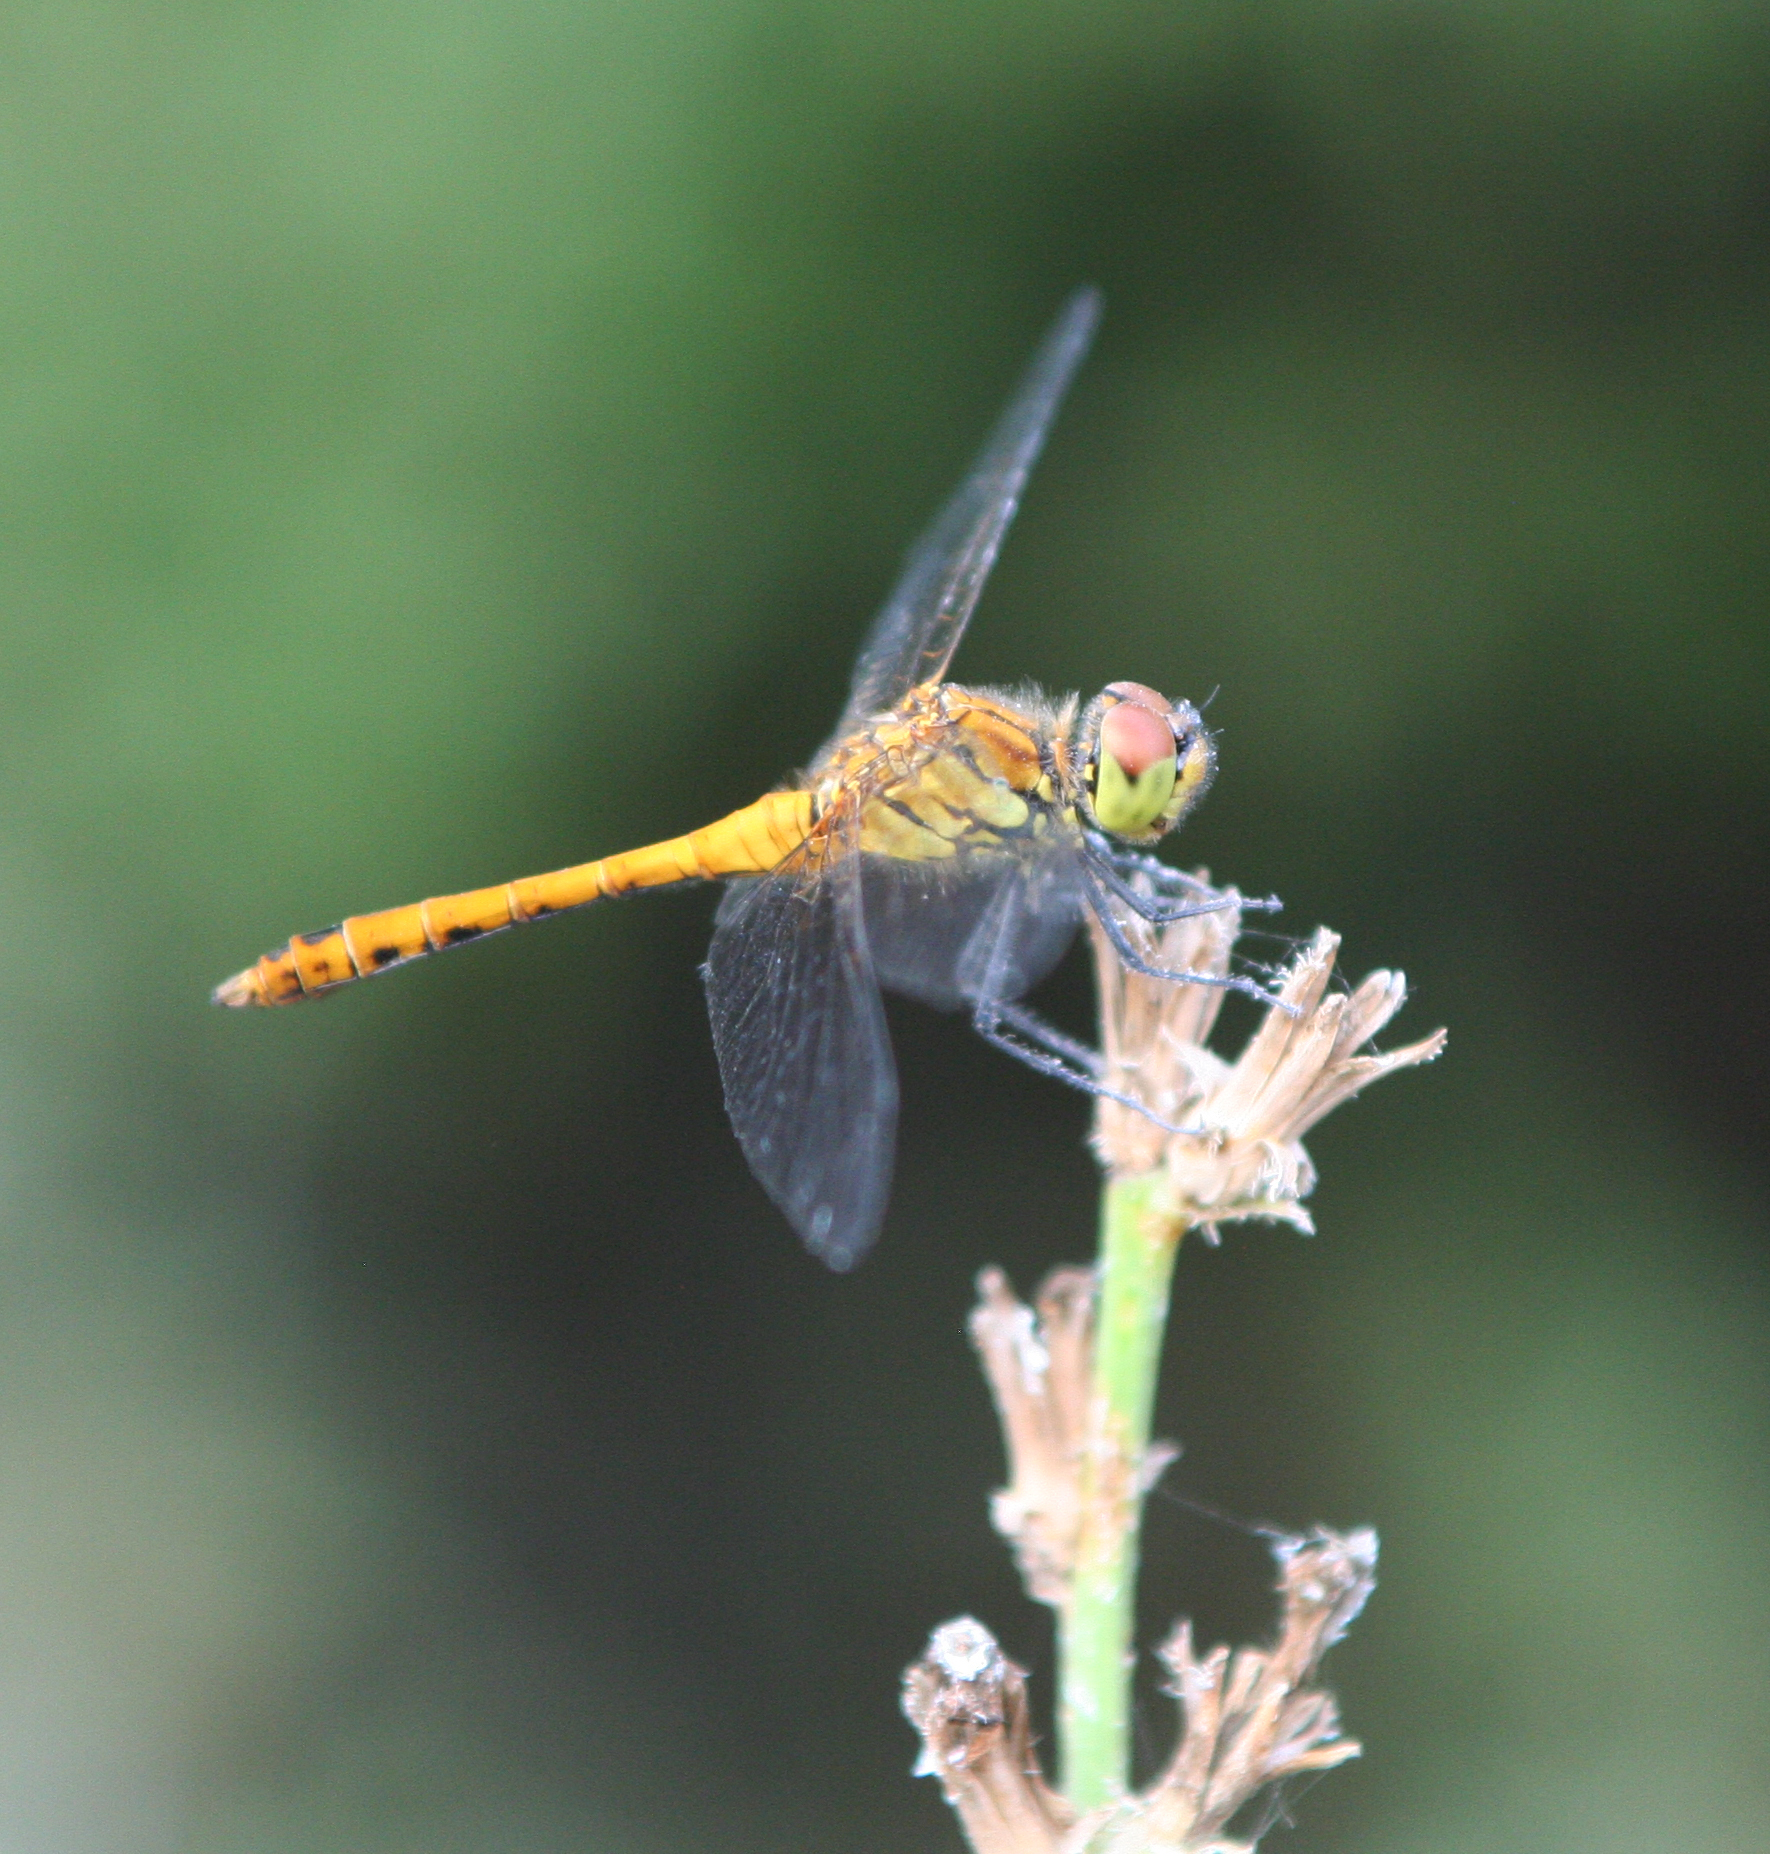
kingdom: Animalia
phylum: Arthropoda
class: Insecta
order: Odonata
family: Libellulidae
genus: Sympetrum
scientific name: Sympetrum sanguineum
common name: Ruddy darter
